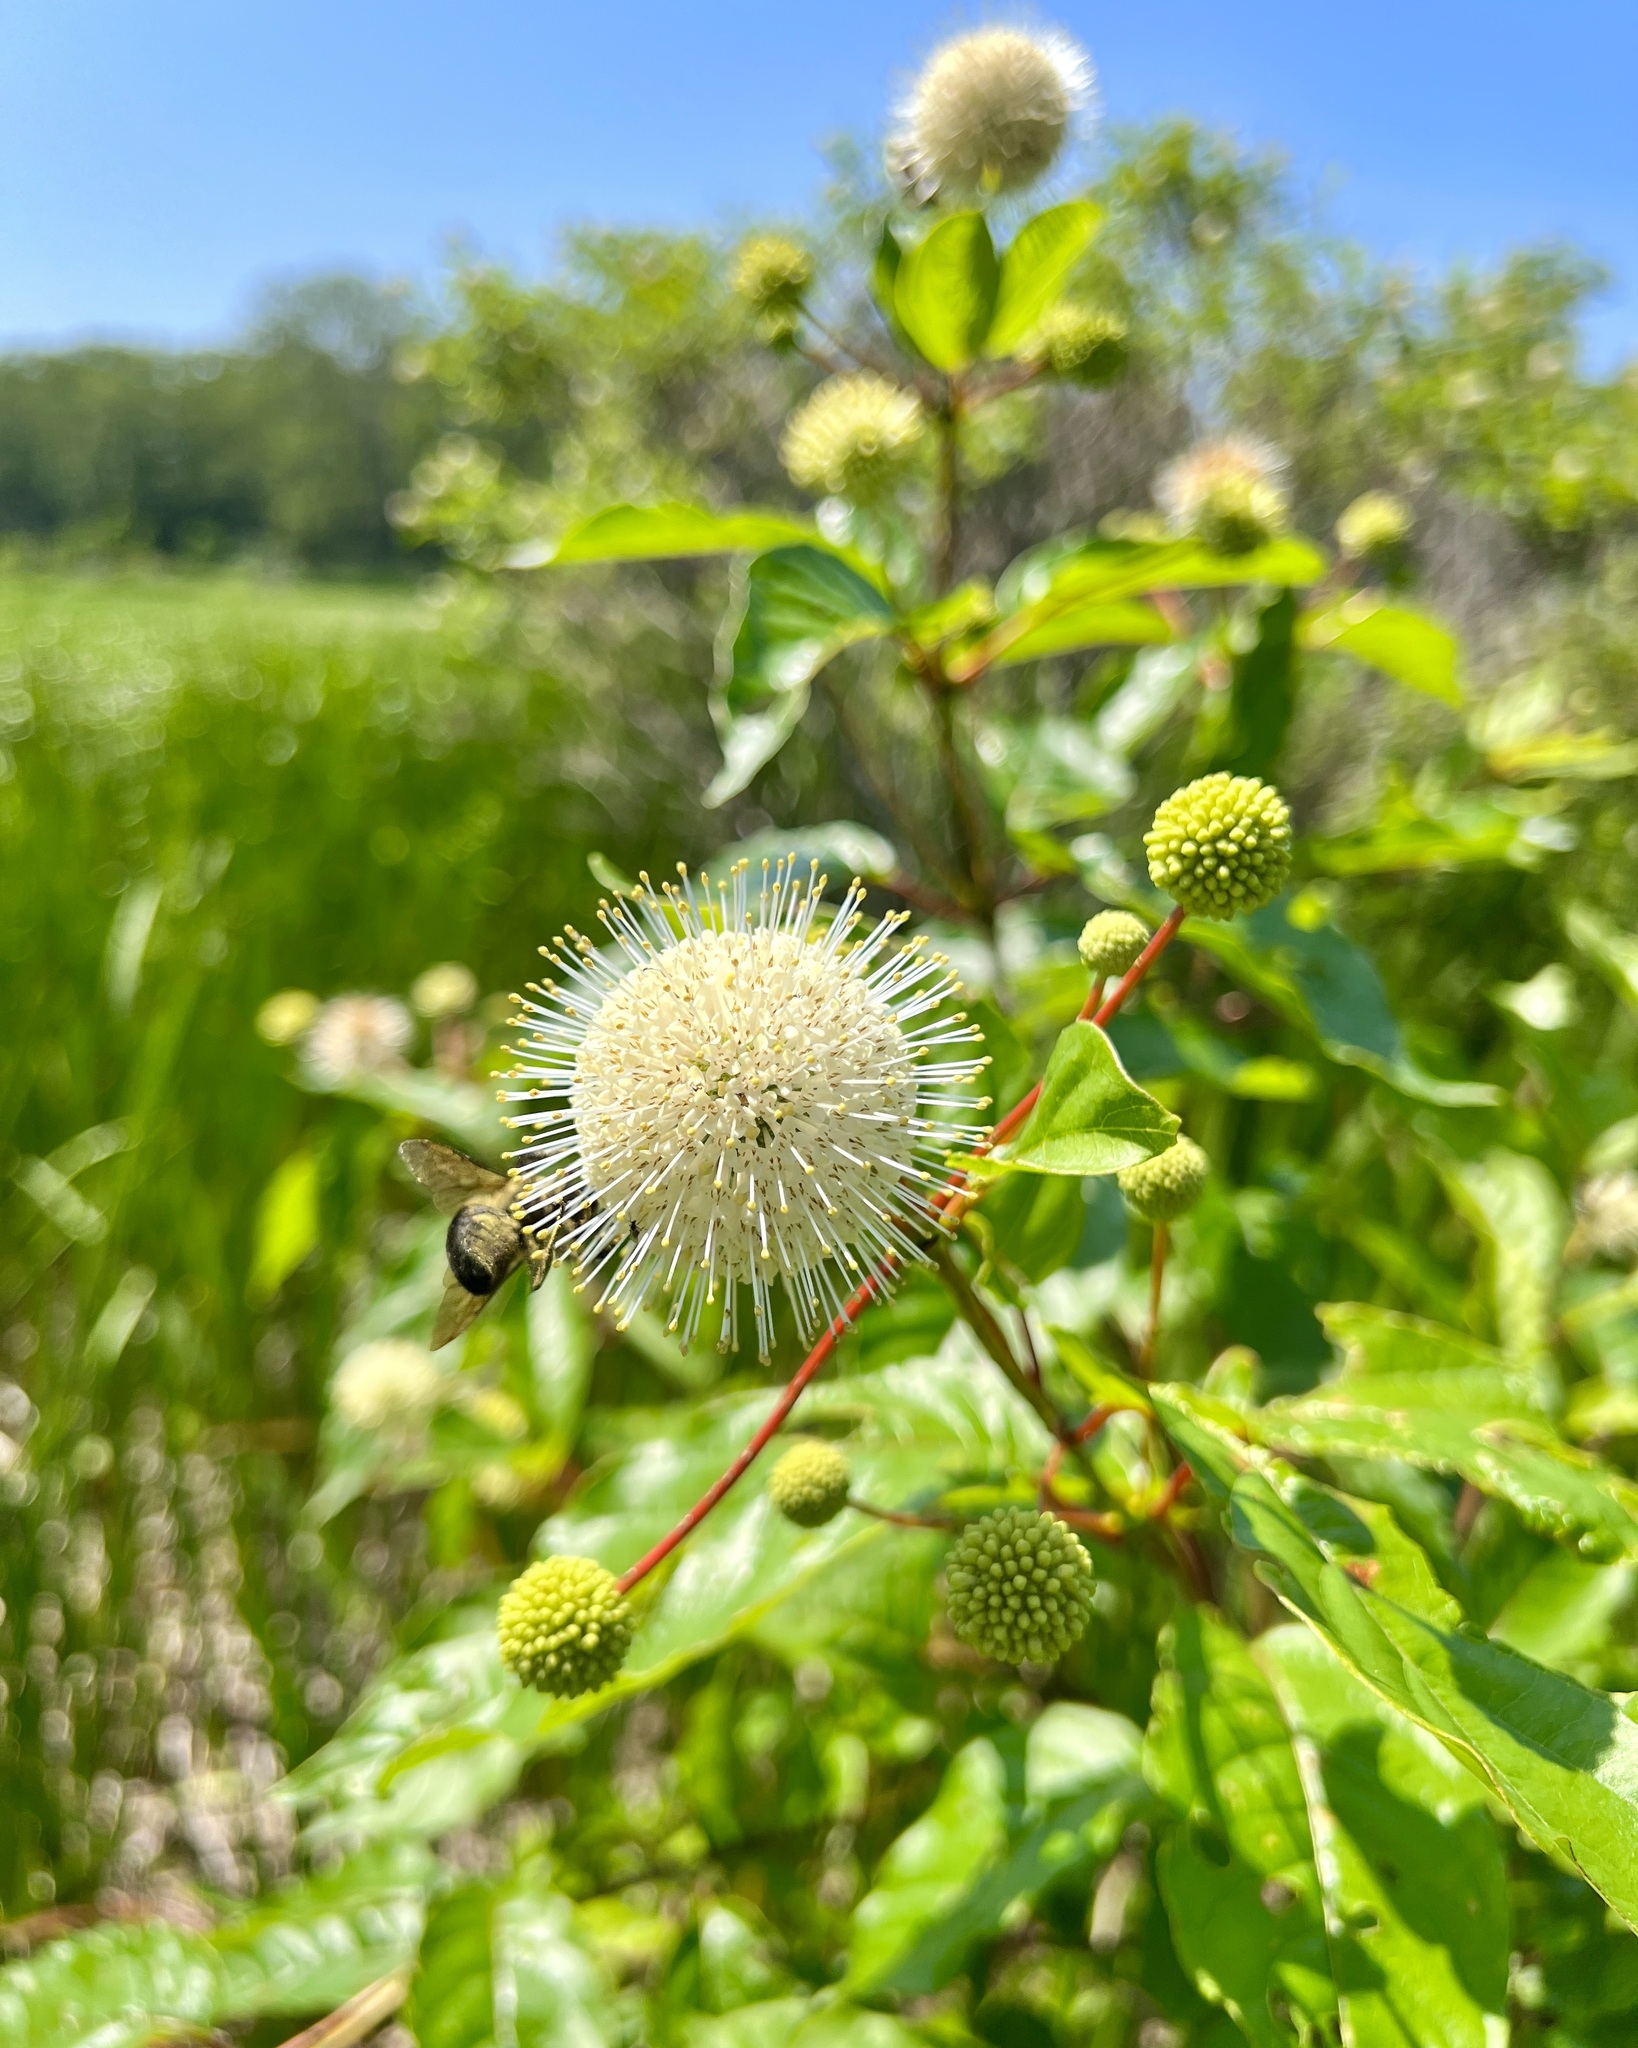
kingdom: Plantae
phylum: Tracheophyta
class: Magnoliopsida
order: Gentianales
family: Rubiaceae
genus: Cephalanthus
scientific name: Cephalanthus occidentalis
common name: Button-willow
